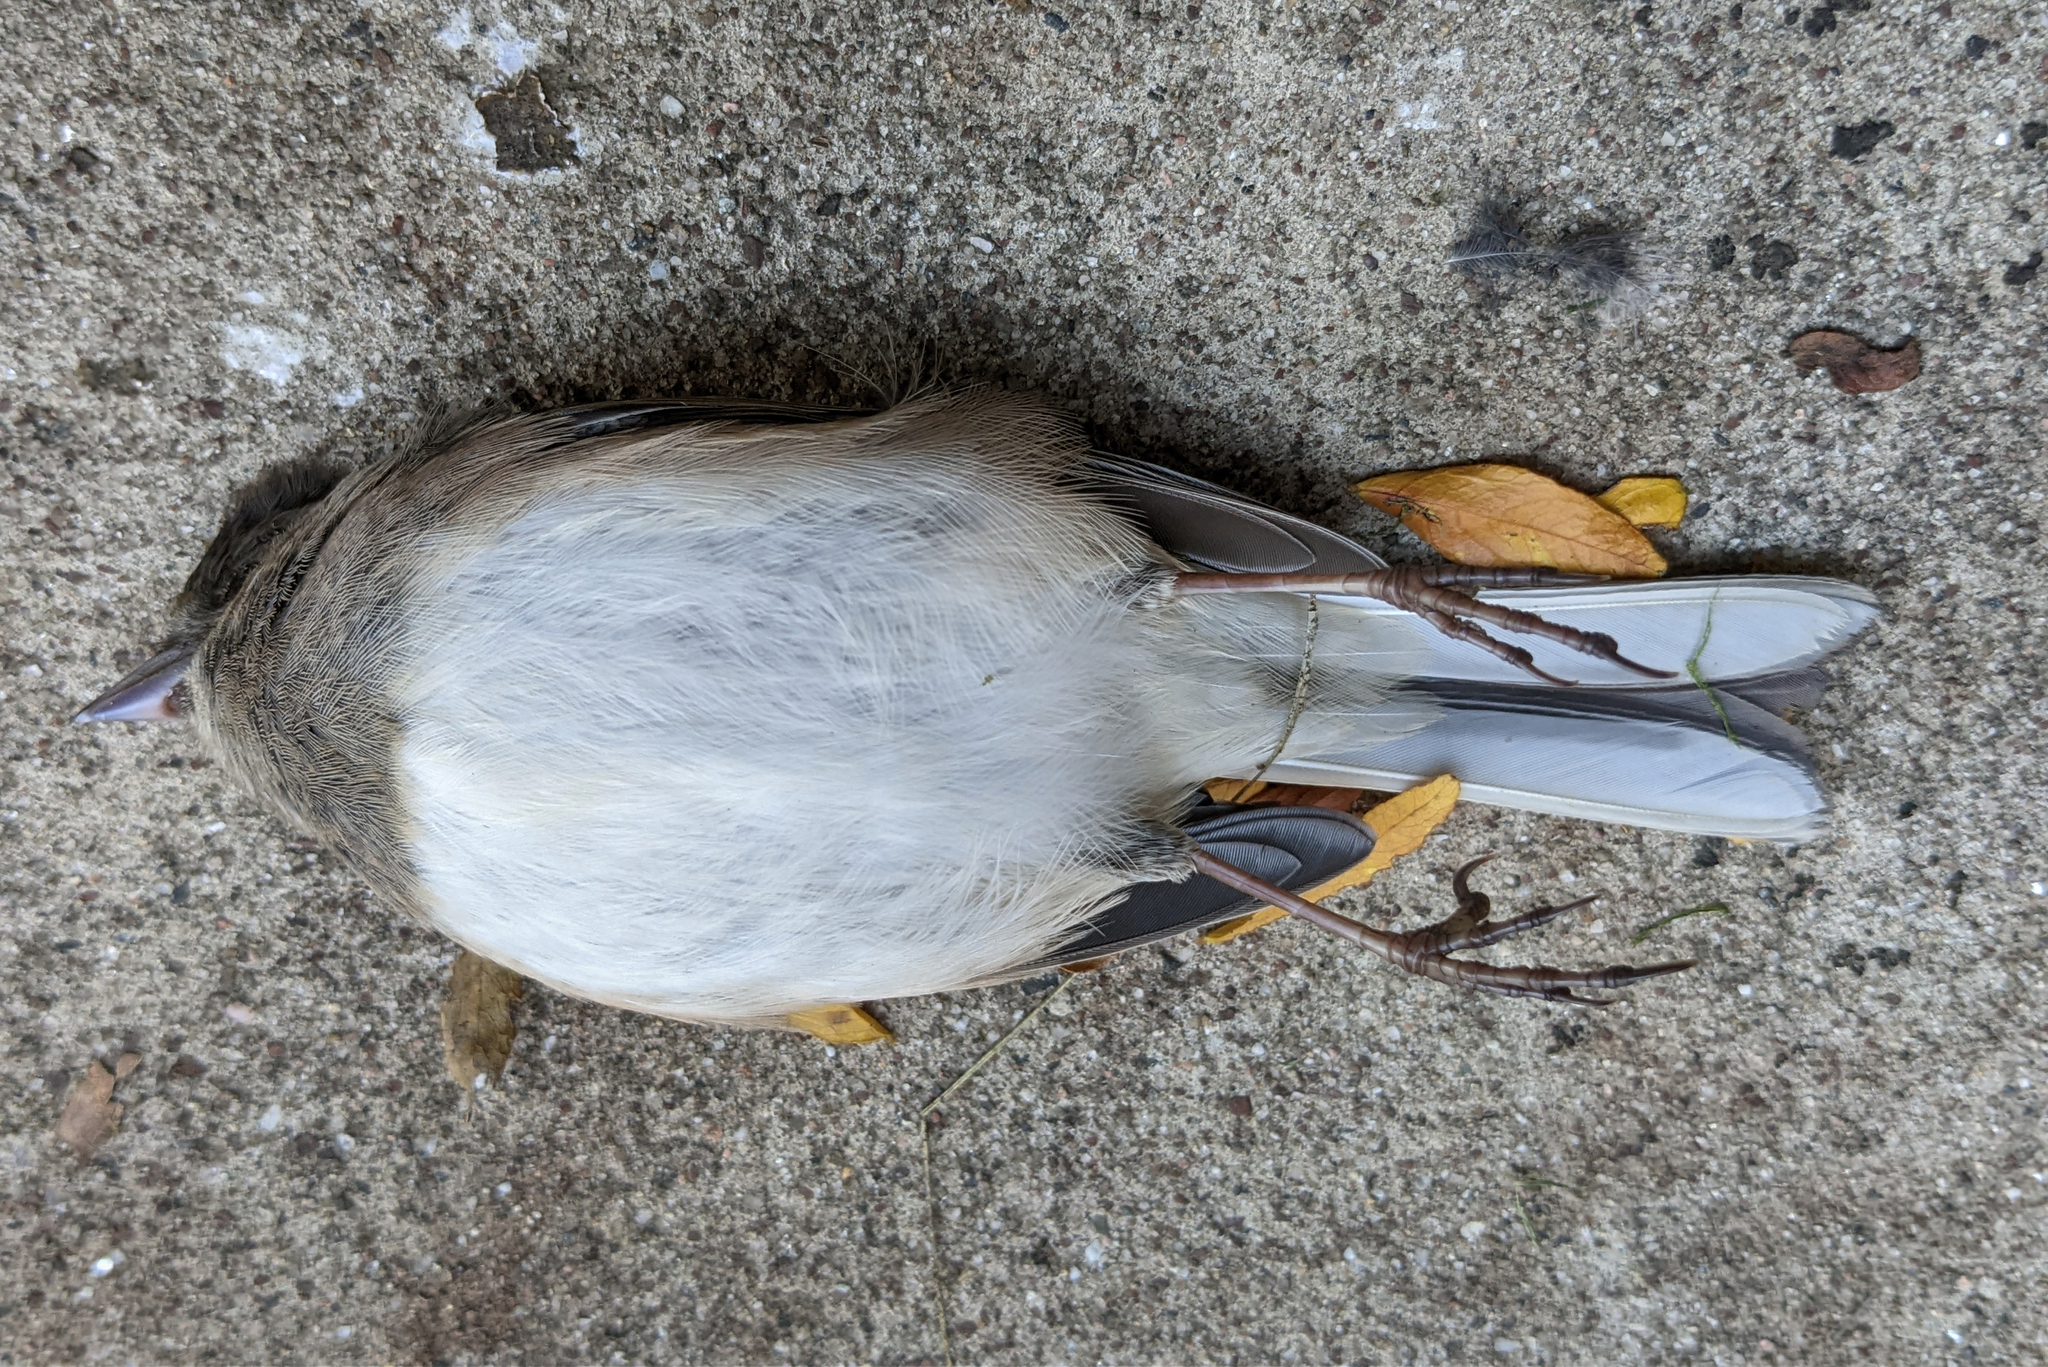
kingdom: Animalia
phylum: Chordata
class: Aves
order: Passeriformes
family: Passerellidae
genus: Junco
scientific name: Junco hyemalis
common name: Dark-eyed junco
